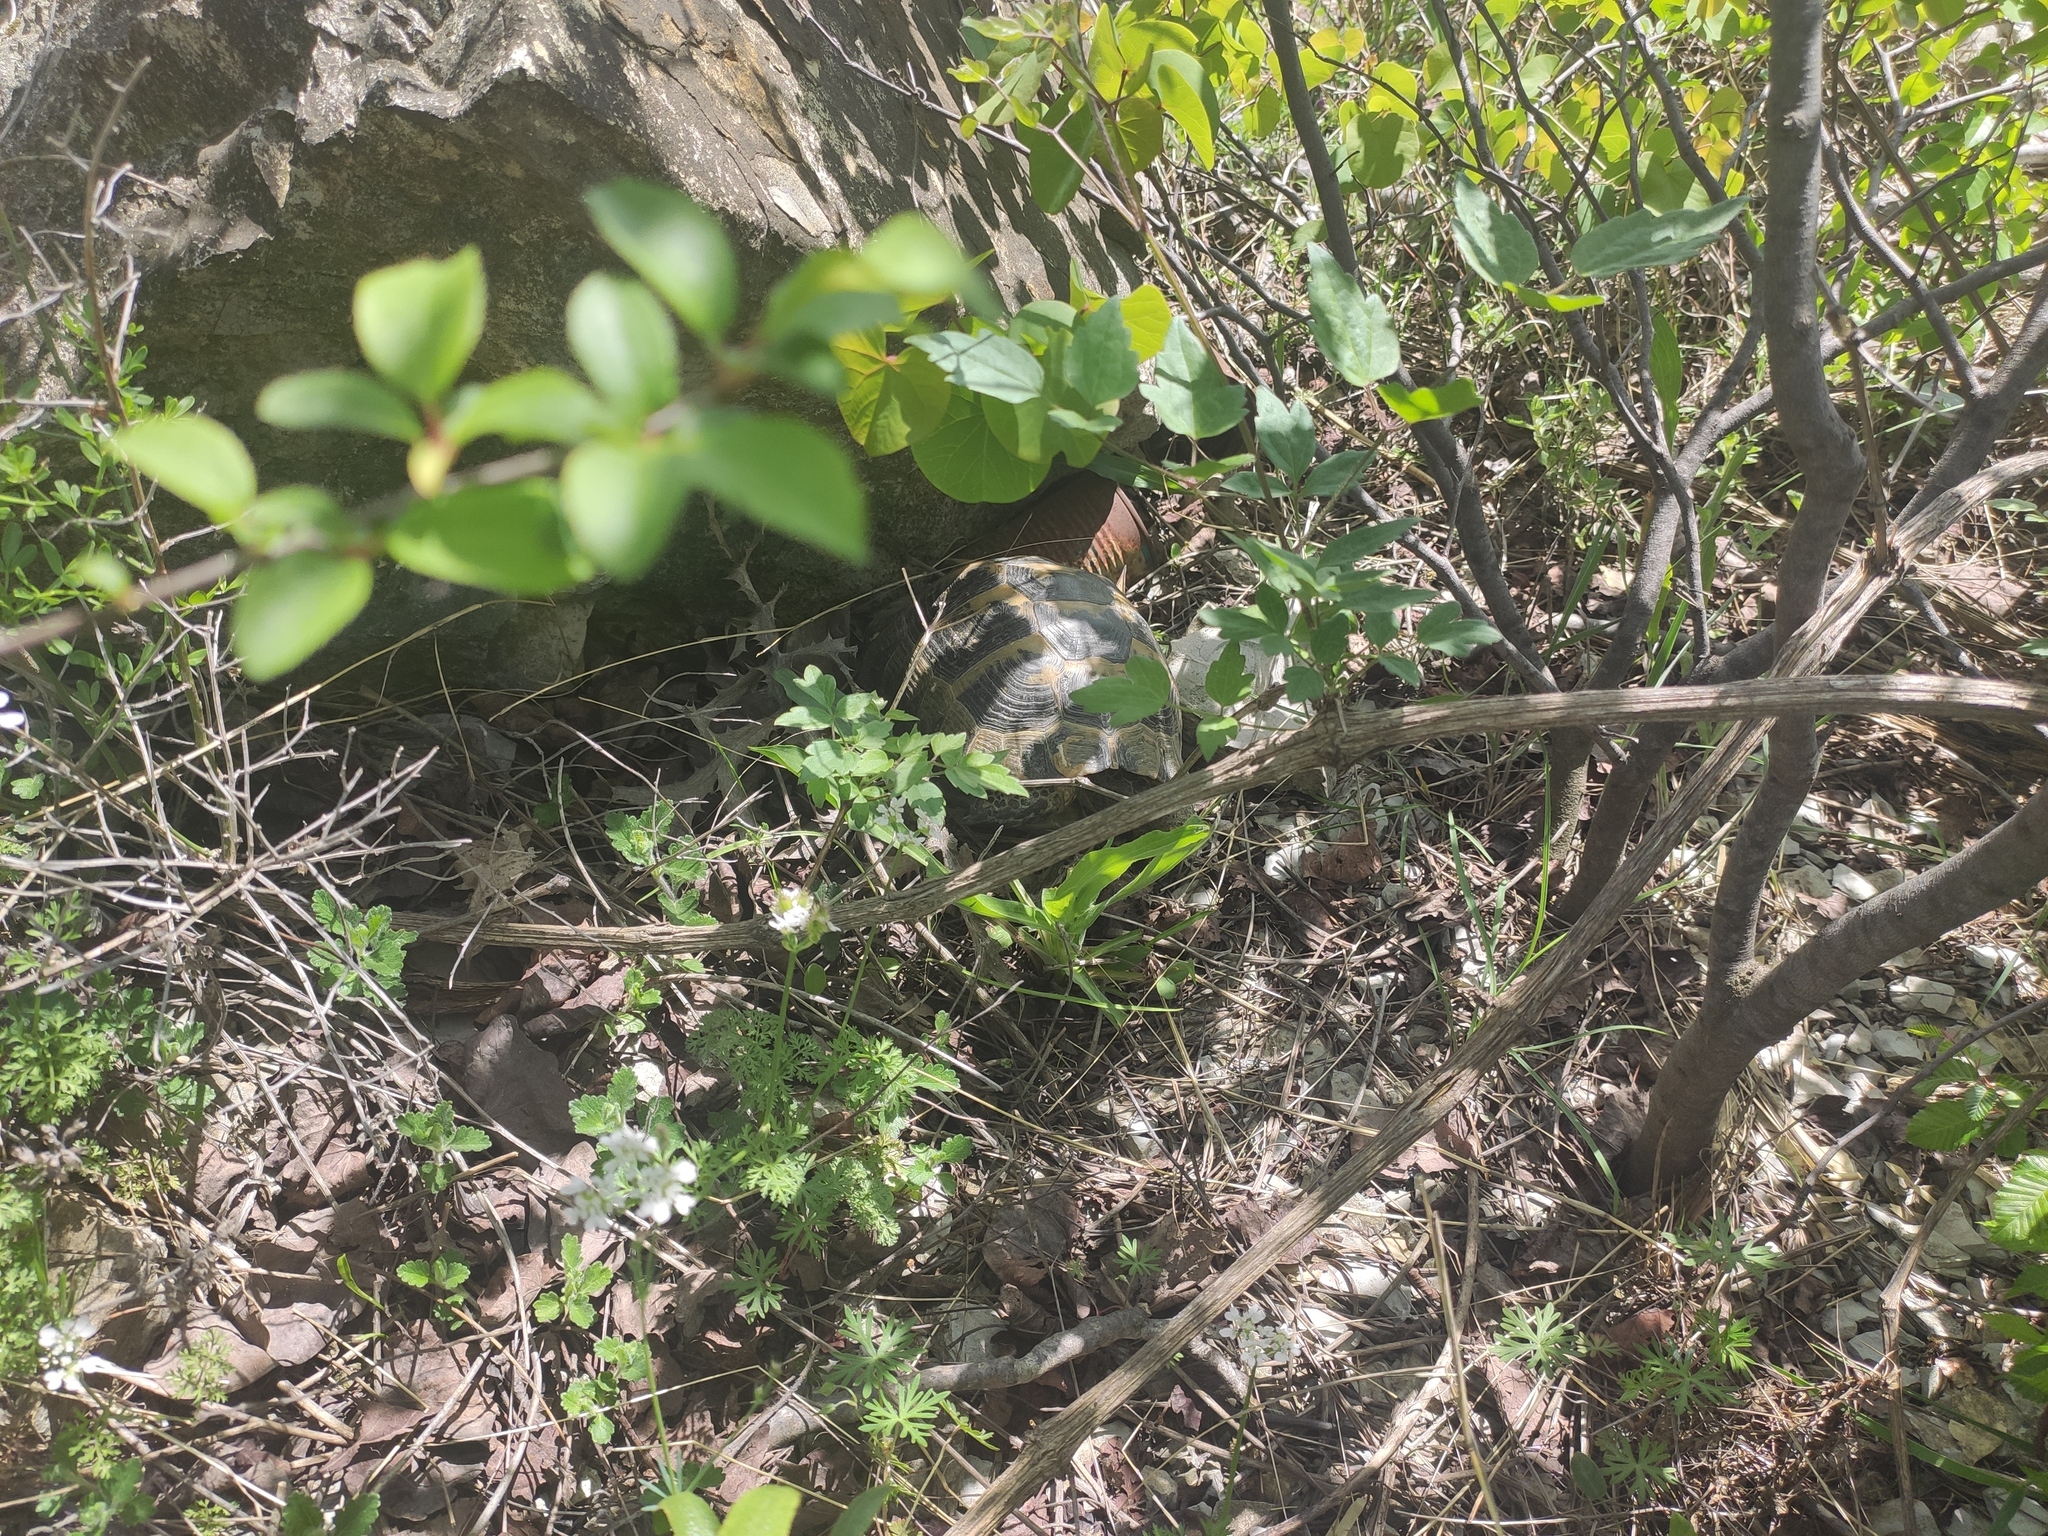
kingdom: Animalia
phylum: Chordata
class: Testudines
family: Testudinidae
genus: Testudo
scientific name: Testudo graeca
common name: Common tortoise
